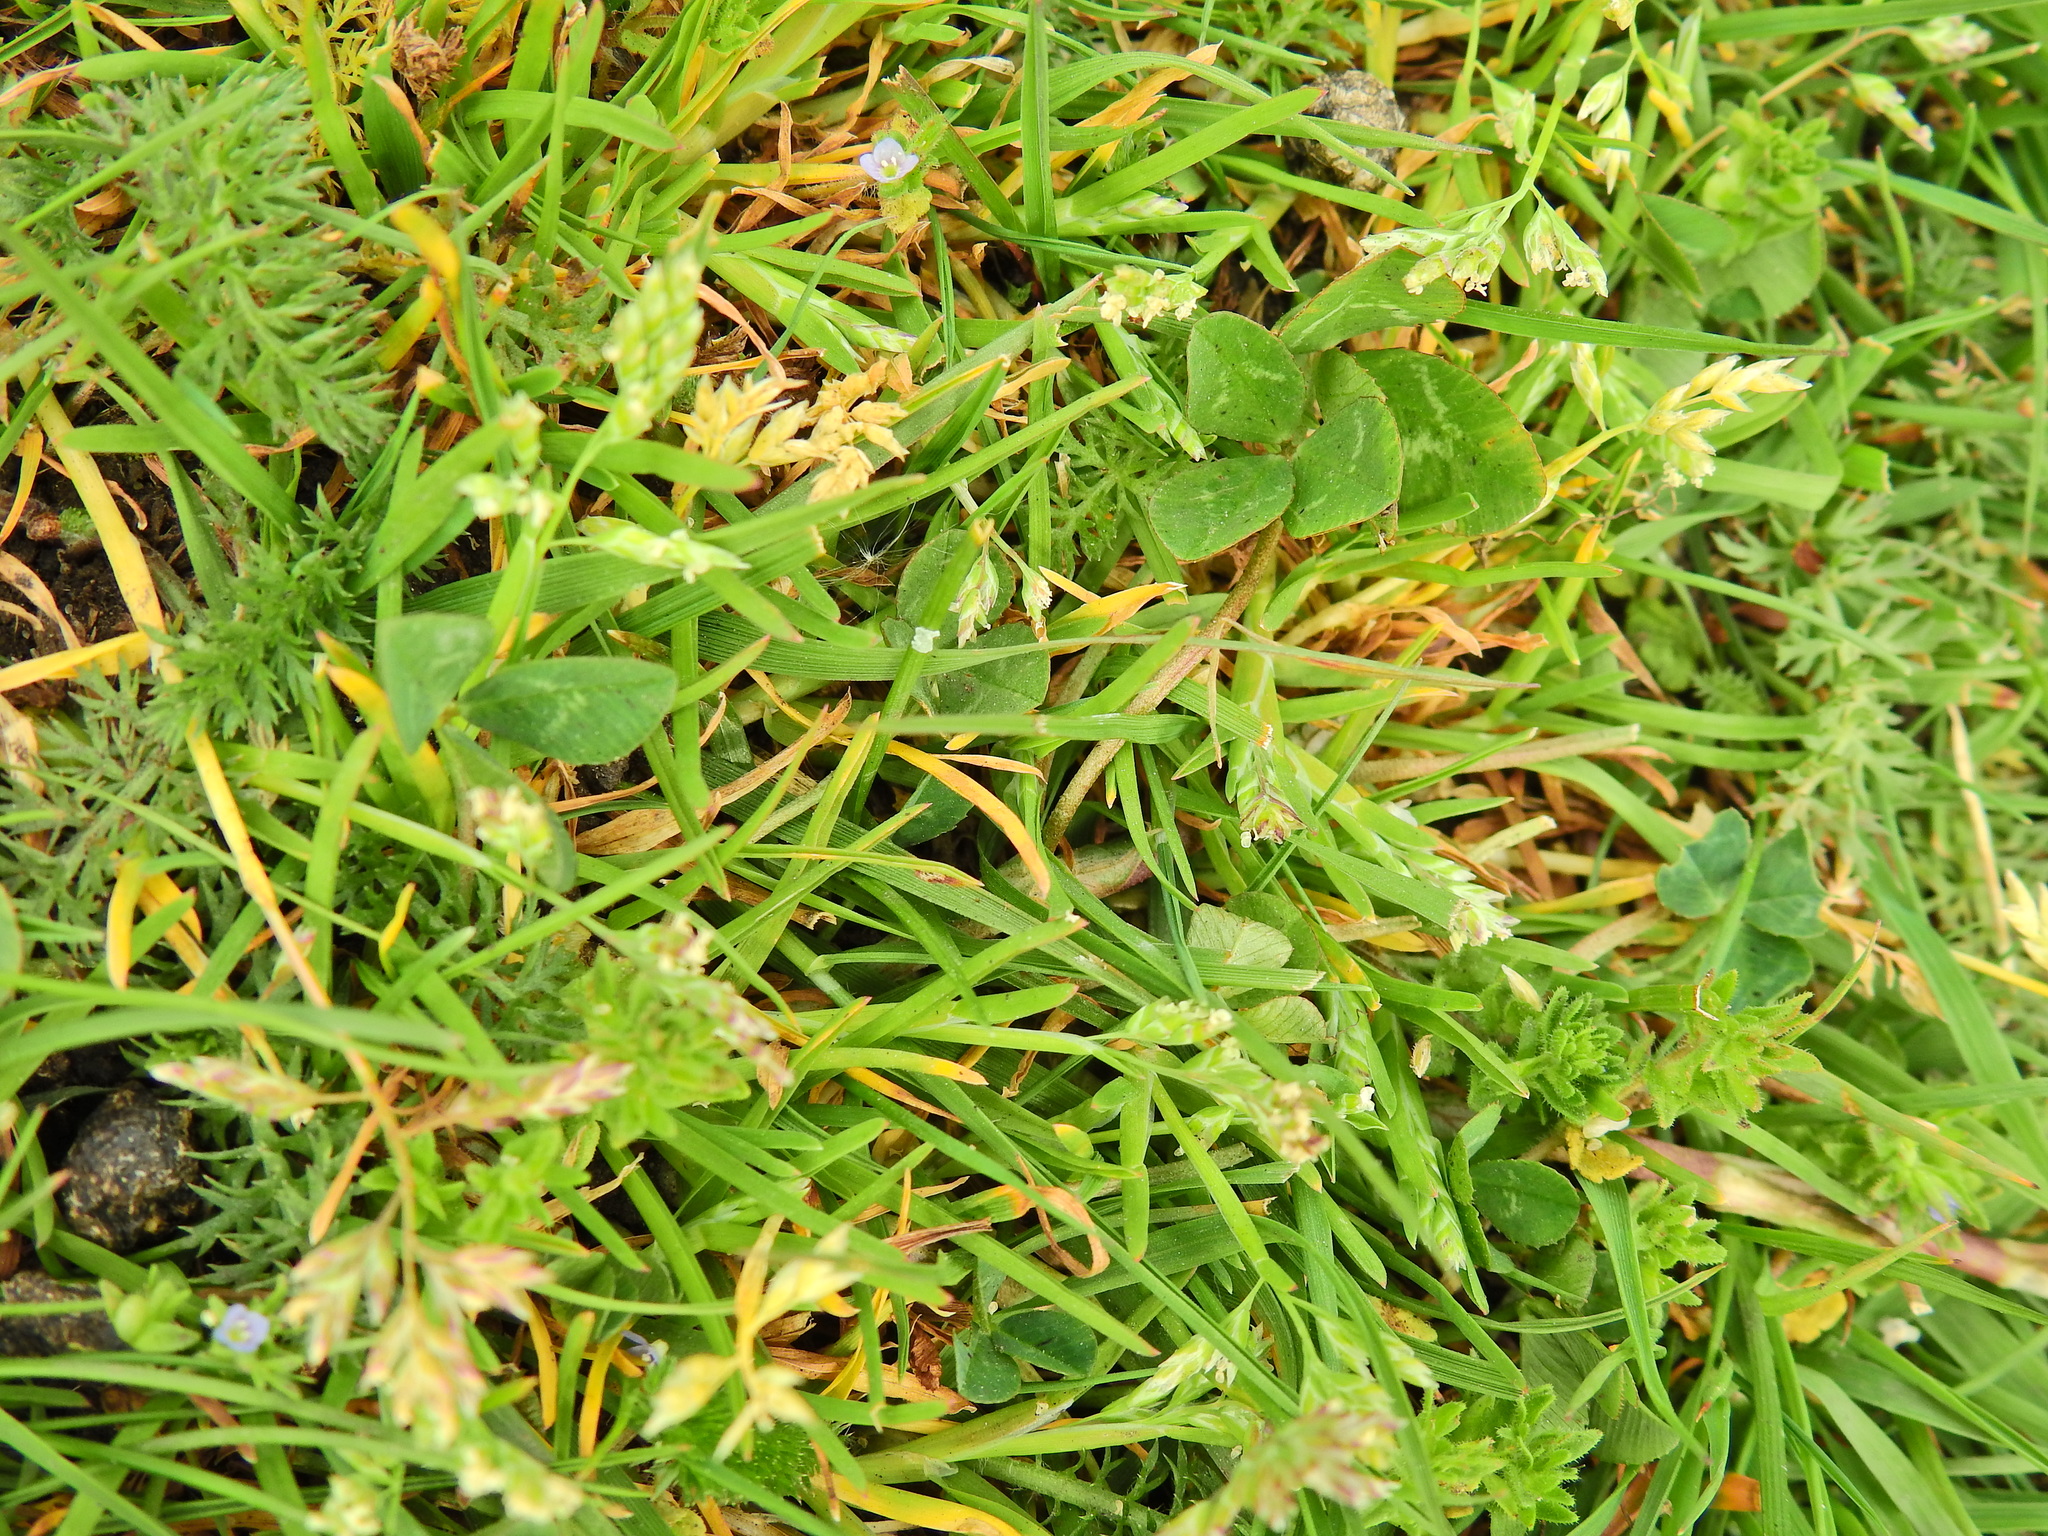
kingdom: Plantae
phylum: Tracheophyta
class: Liliopsida
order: Poales
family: Poaceae
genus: Poa
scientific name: Poa annua
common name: Annual bluegrass
